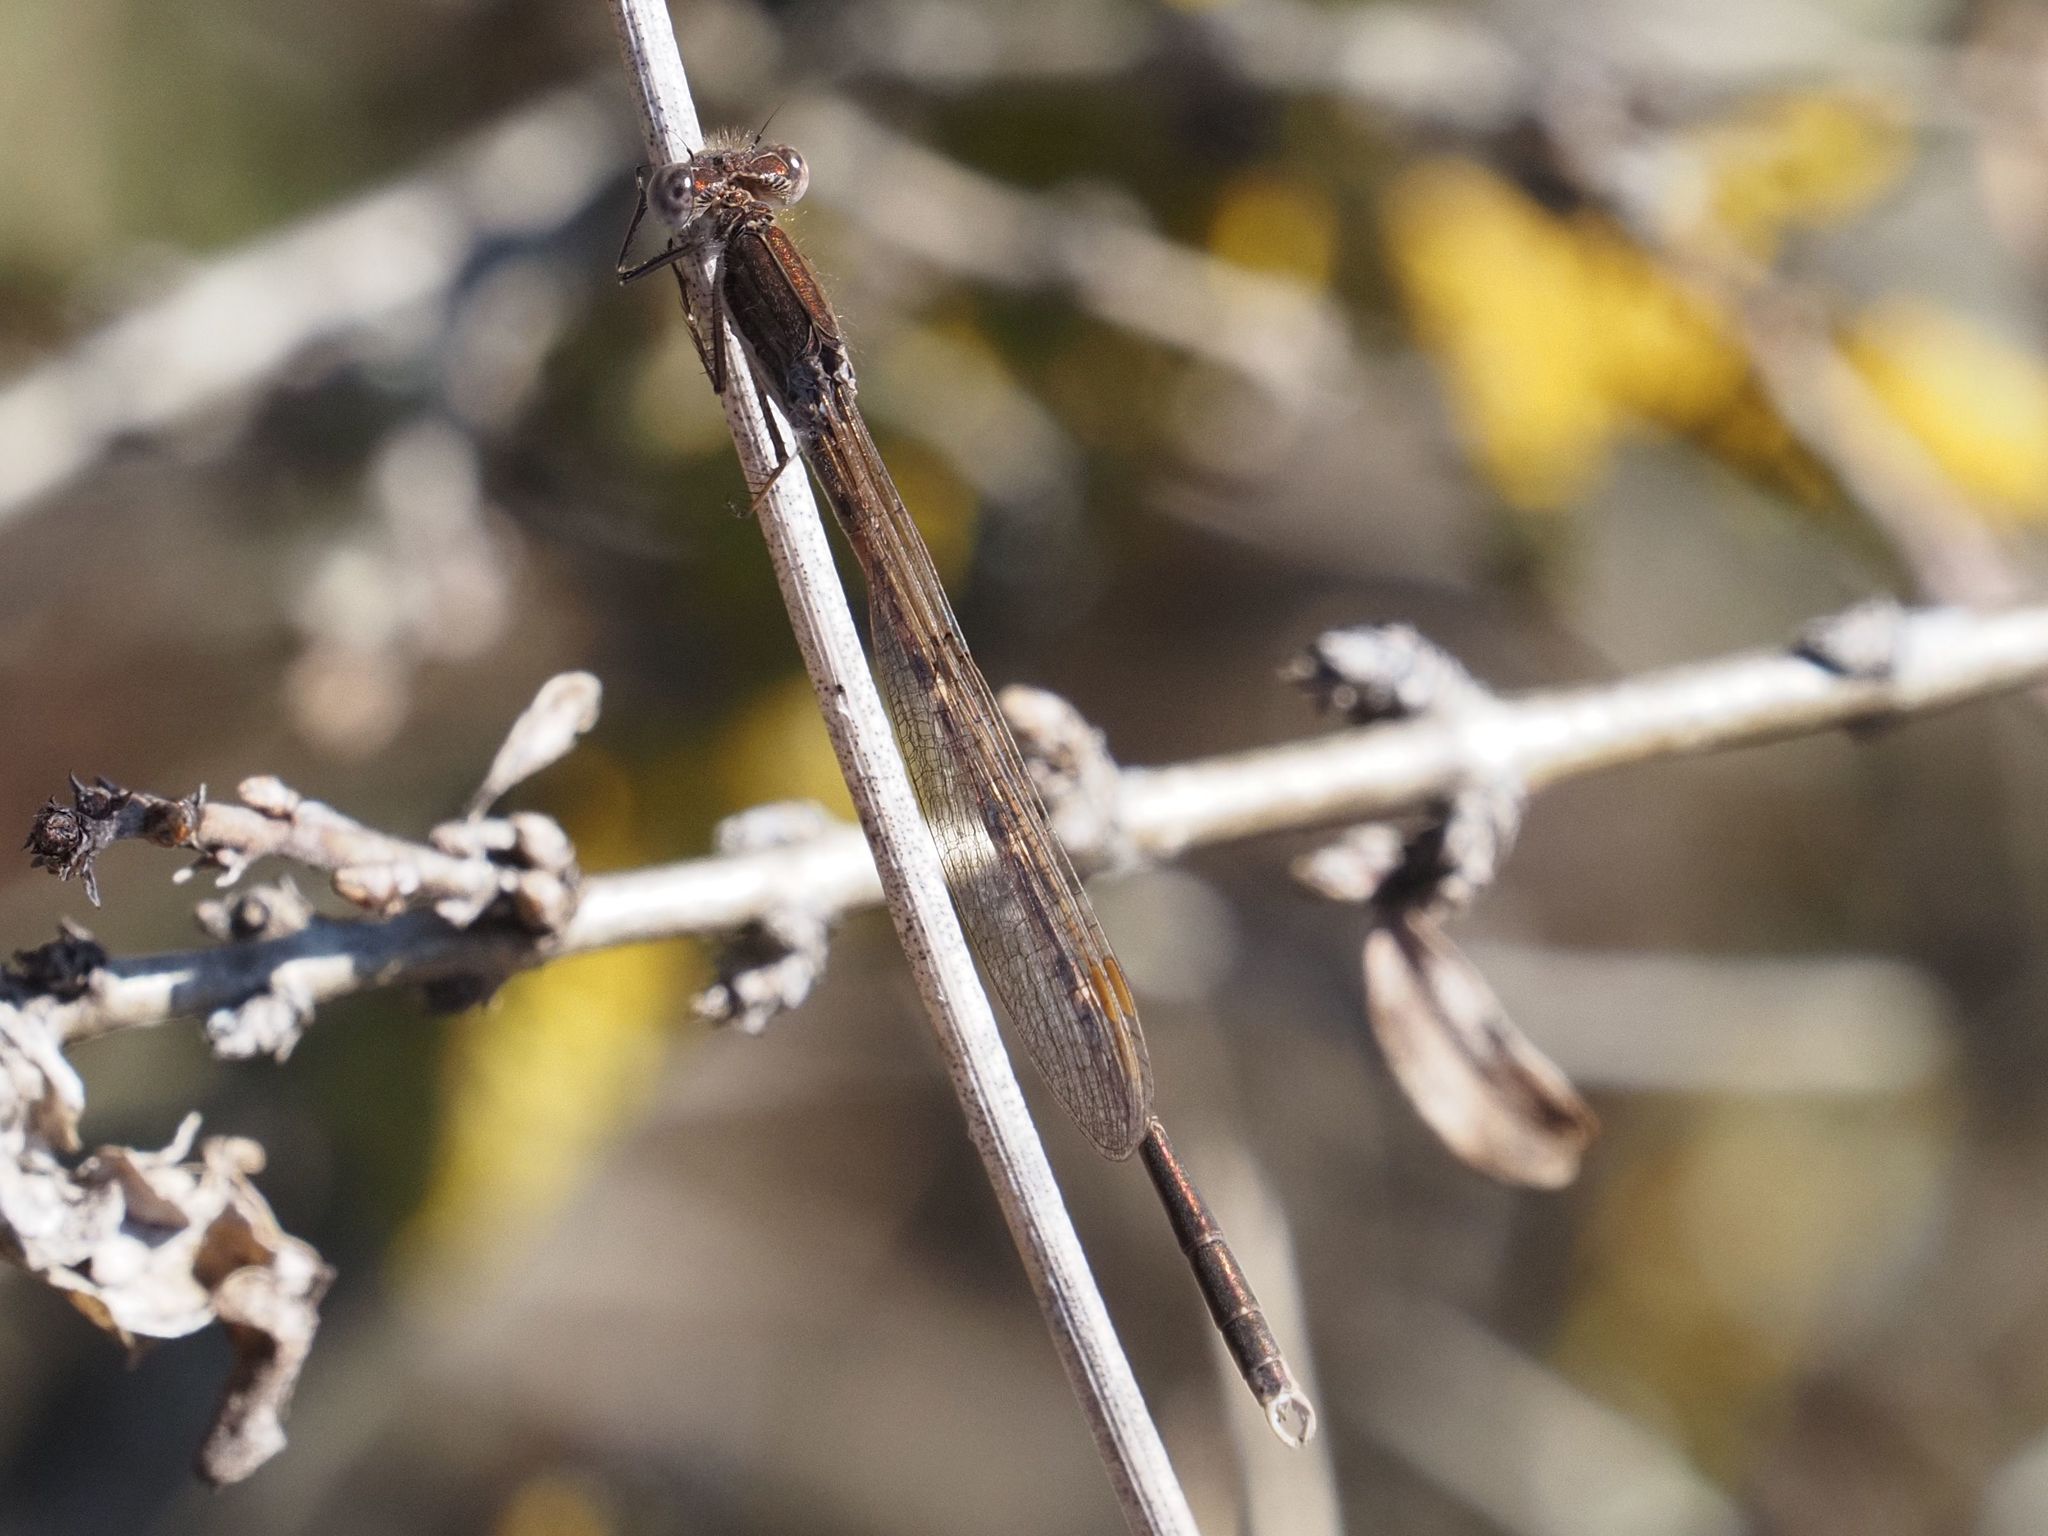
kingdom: Animalia
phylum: Arthropoda
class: Insecta
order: Odonata
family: Lestidae
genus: Sympecma
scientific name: Sympecma fusca
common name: Common winter damsel
